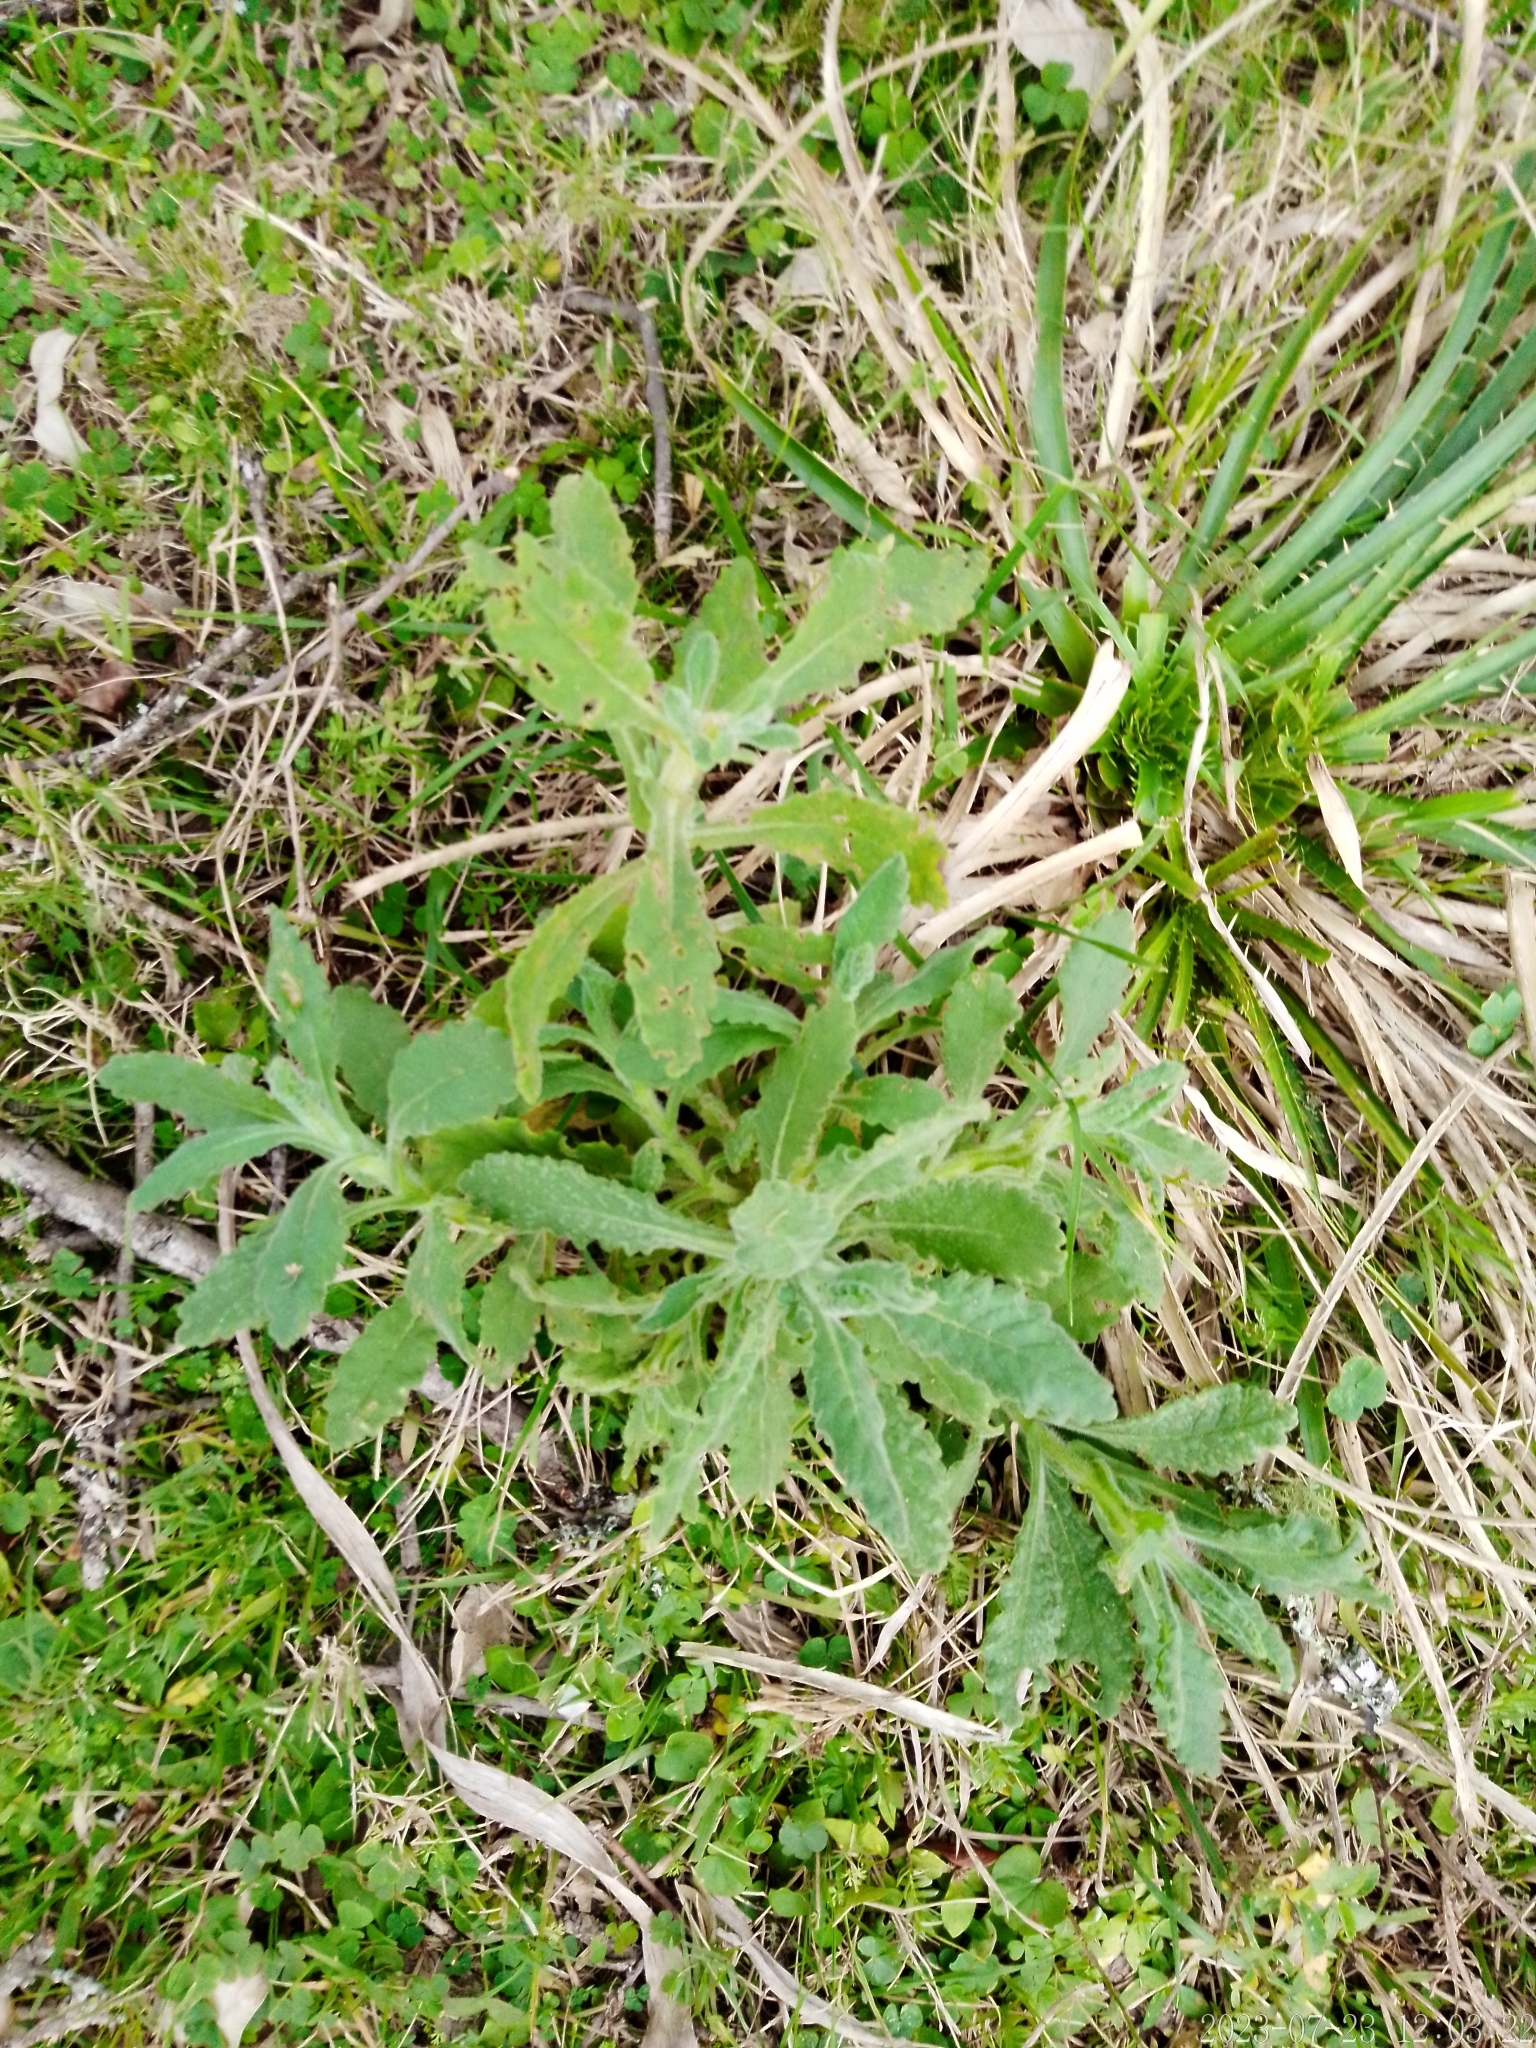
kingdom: Plantae
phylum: Tracheophyta
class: Magnoliopsida
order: Asterales
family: Asteraceae
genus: Senecio
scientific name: Senecio selloi
